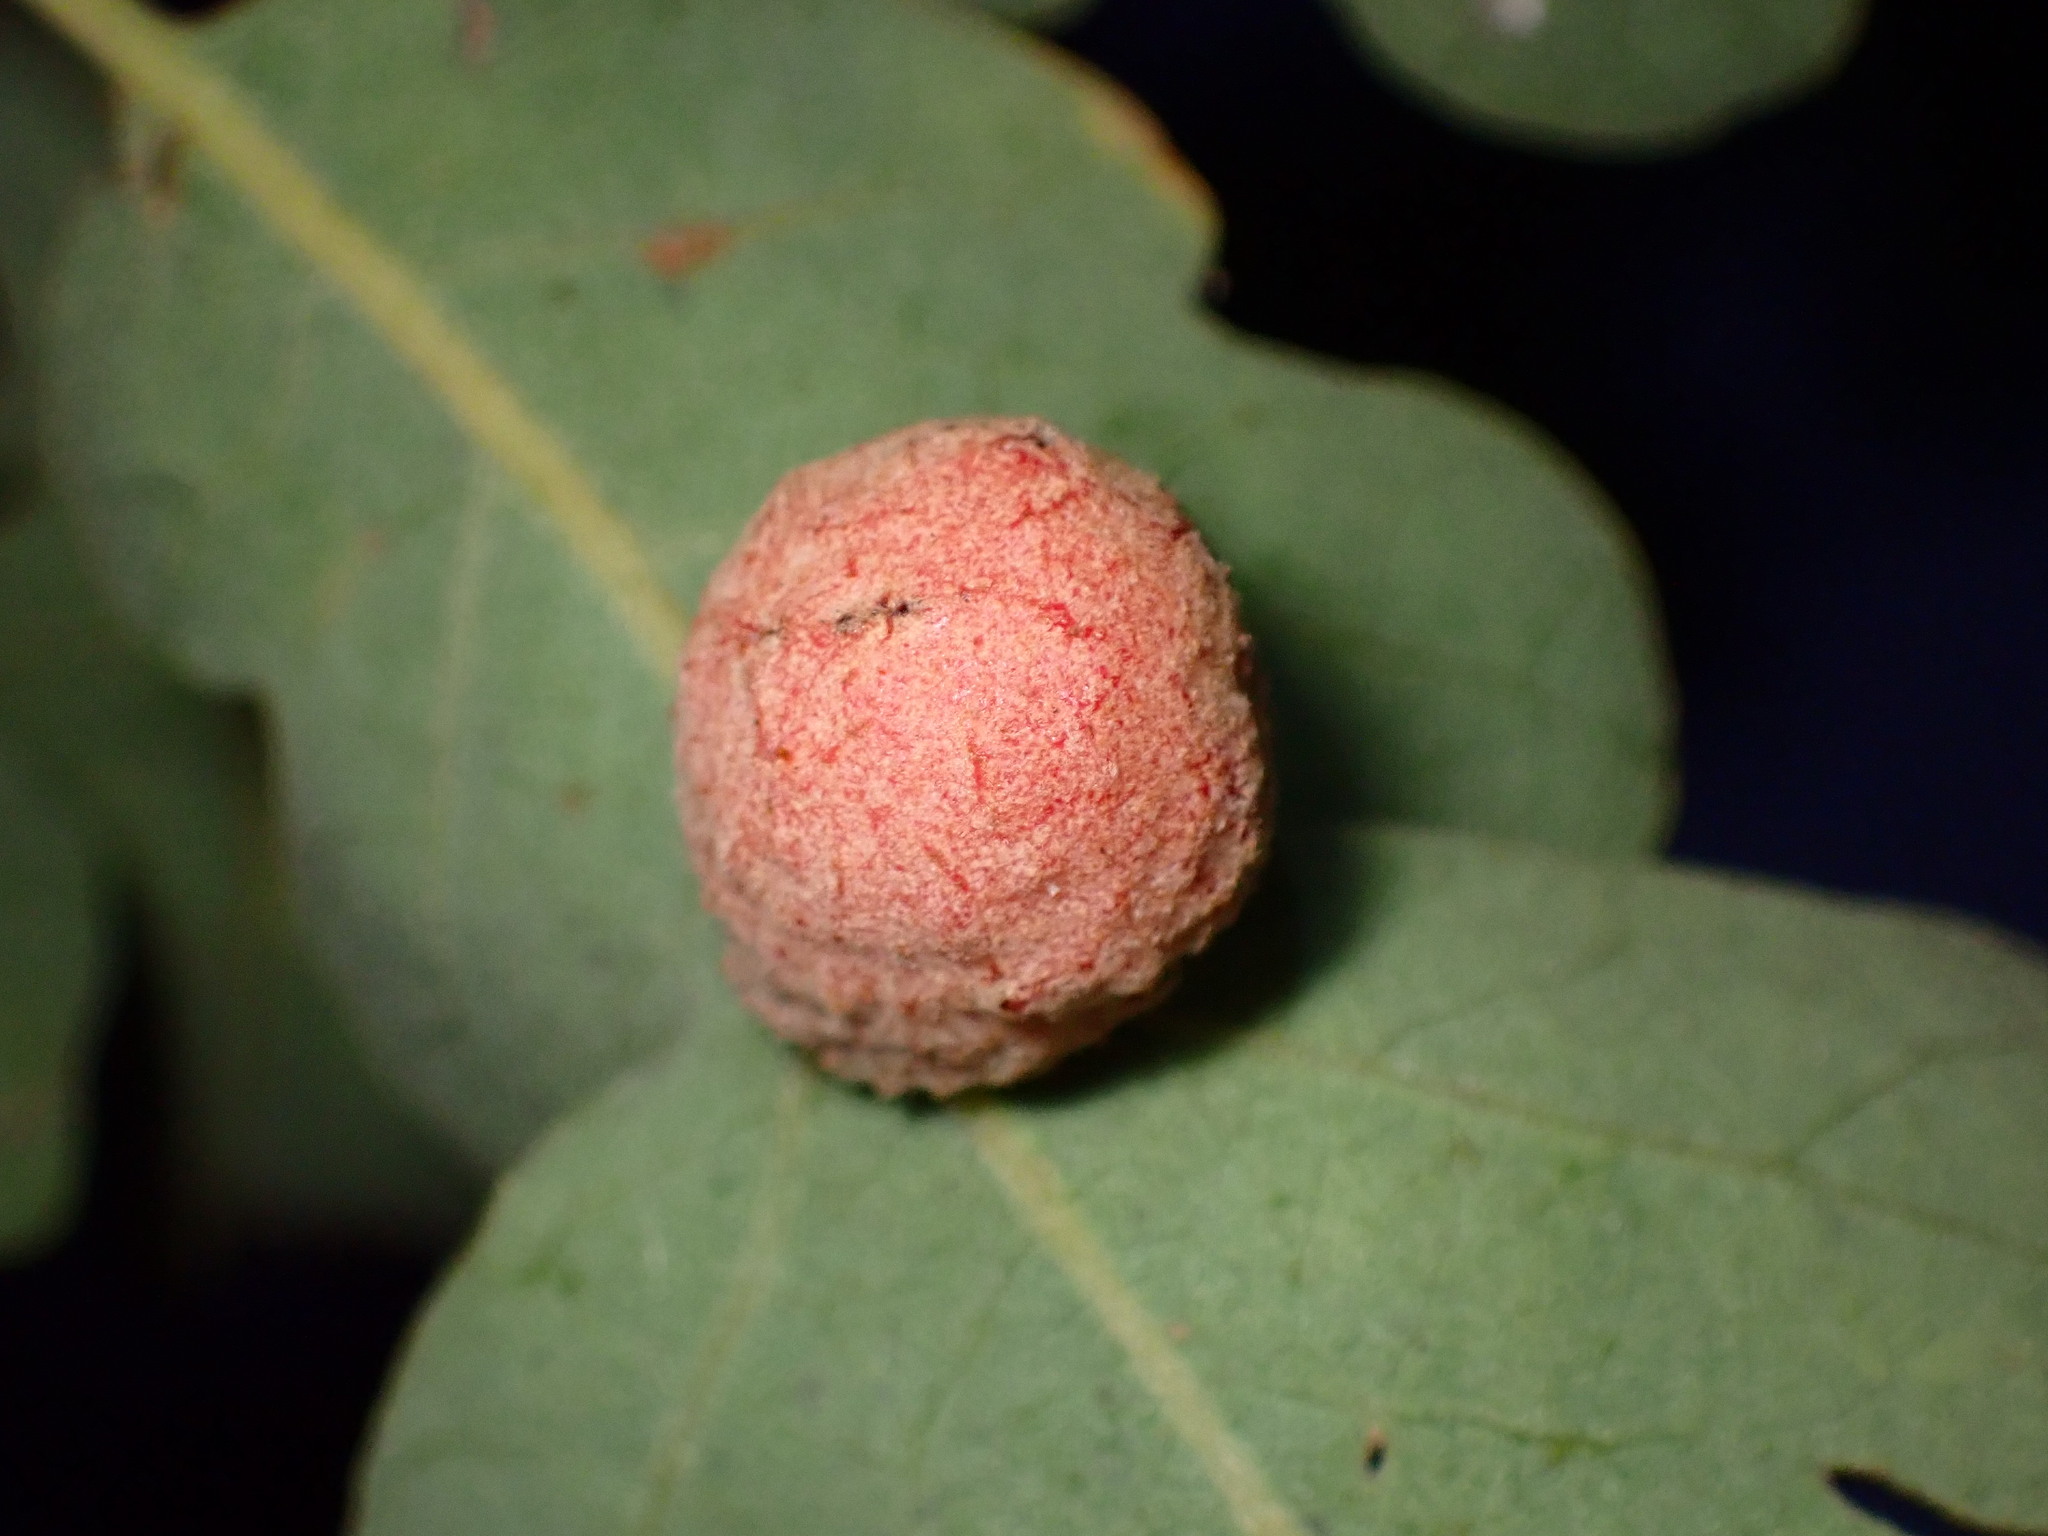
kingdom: Animalia
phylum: Arthropoda
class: Insecta
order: Hymenoptera
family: Cynipidae
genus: Cynips
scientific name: Cynips conspicua
